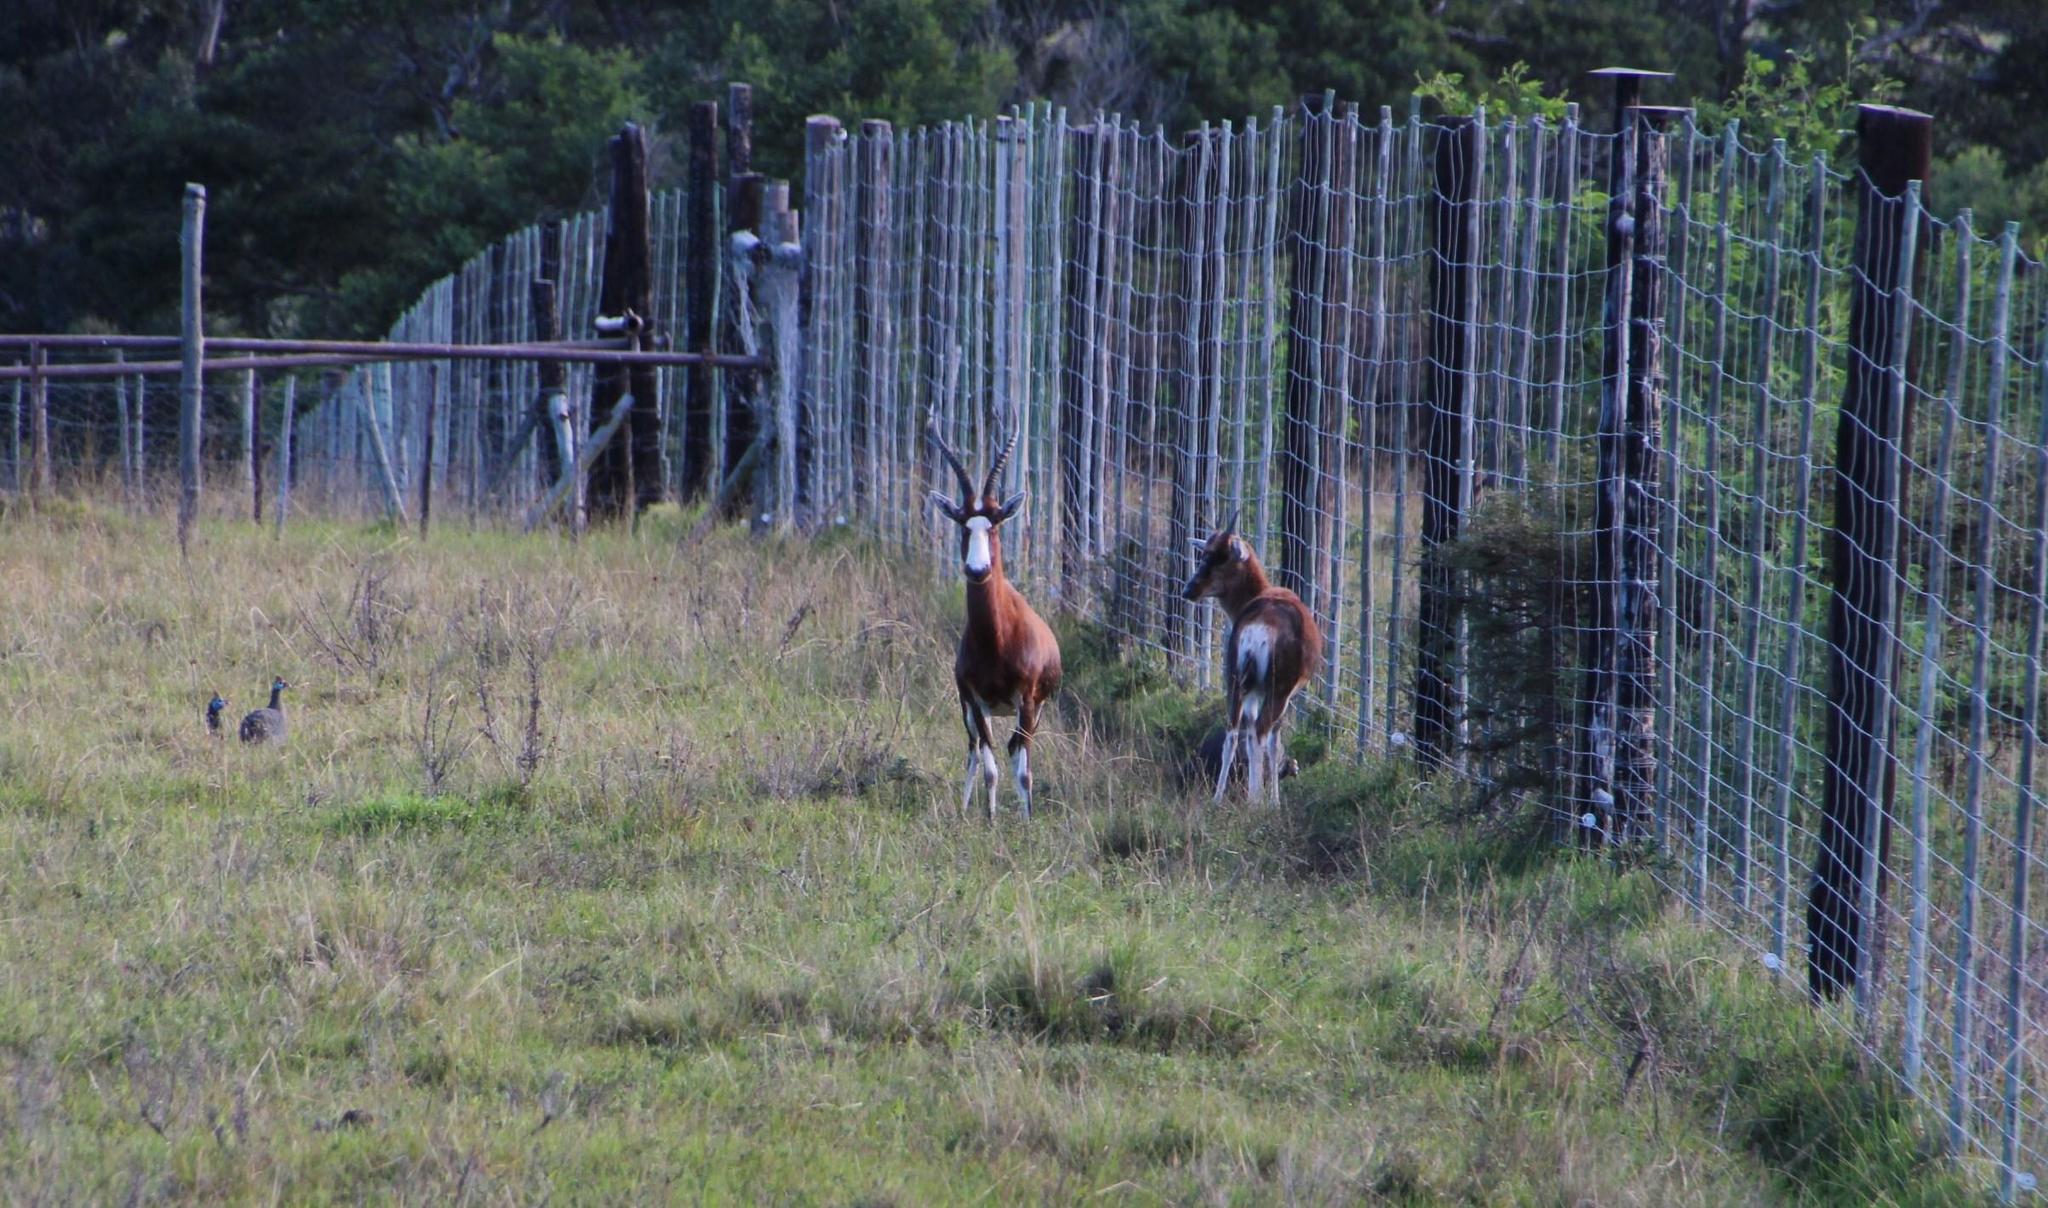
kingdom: Animalia
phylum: Chordata
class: Mammalia
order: Artiodactyla
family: Bovidae
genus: Damaliscus
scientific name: Damaliscus pygargus
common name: Bontebok
